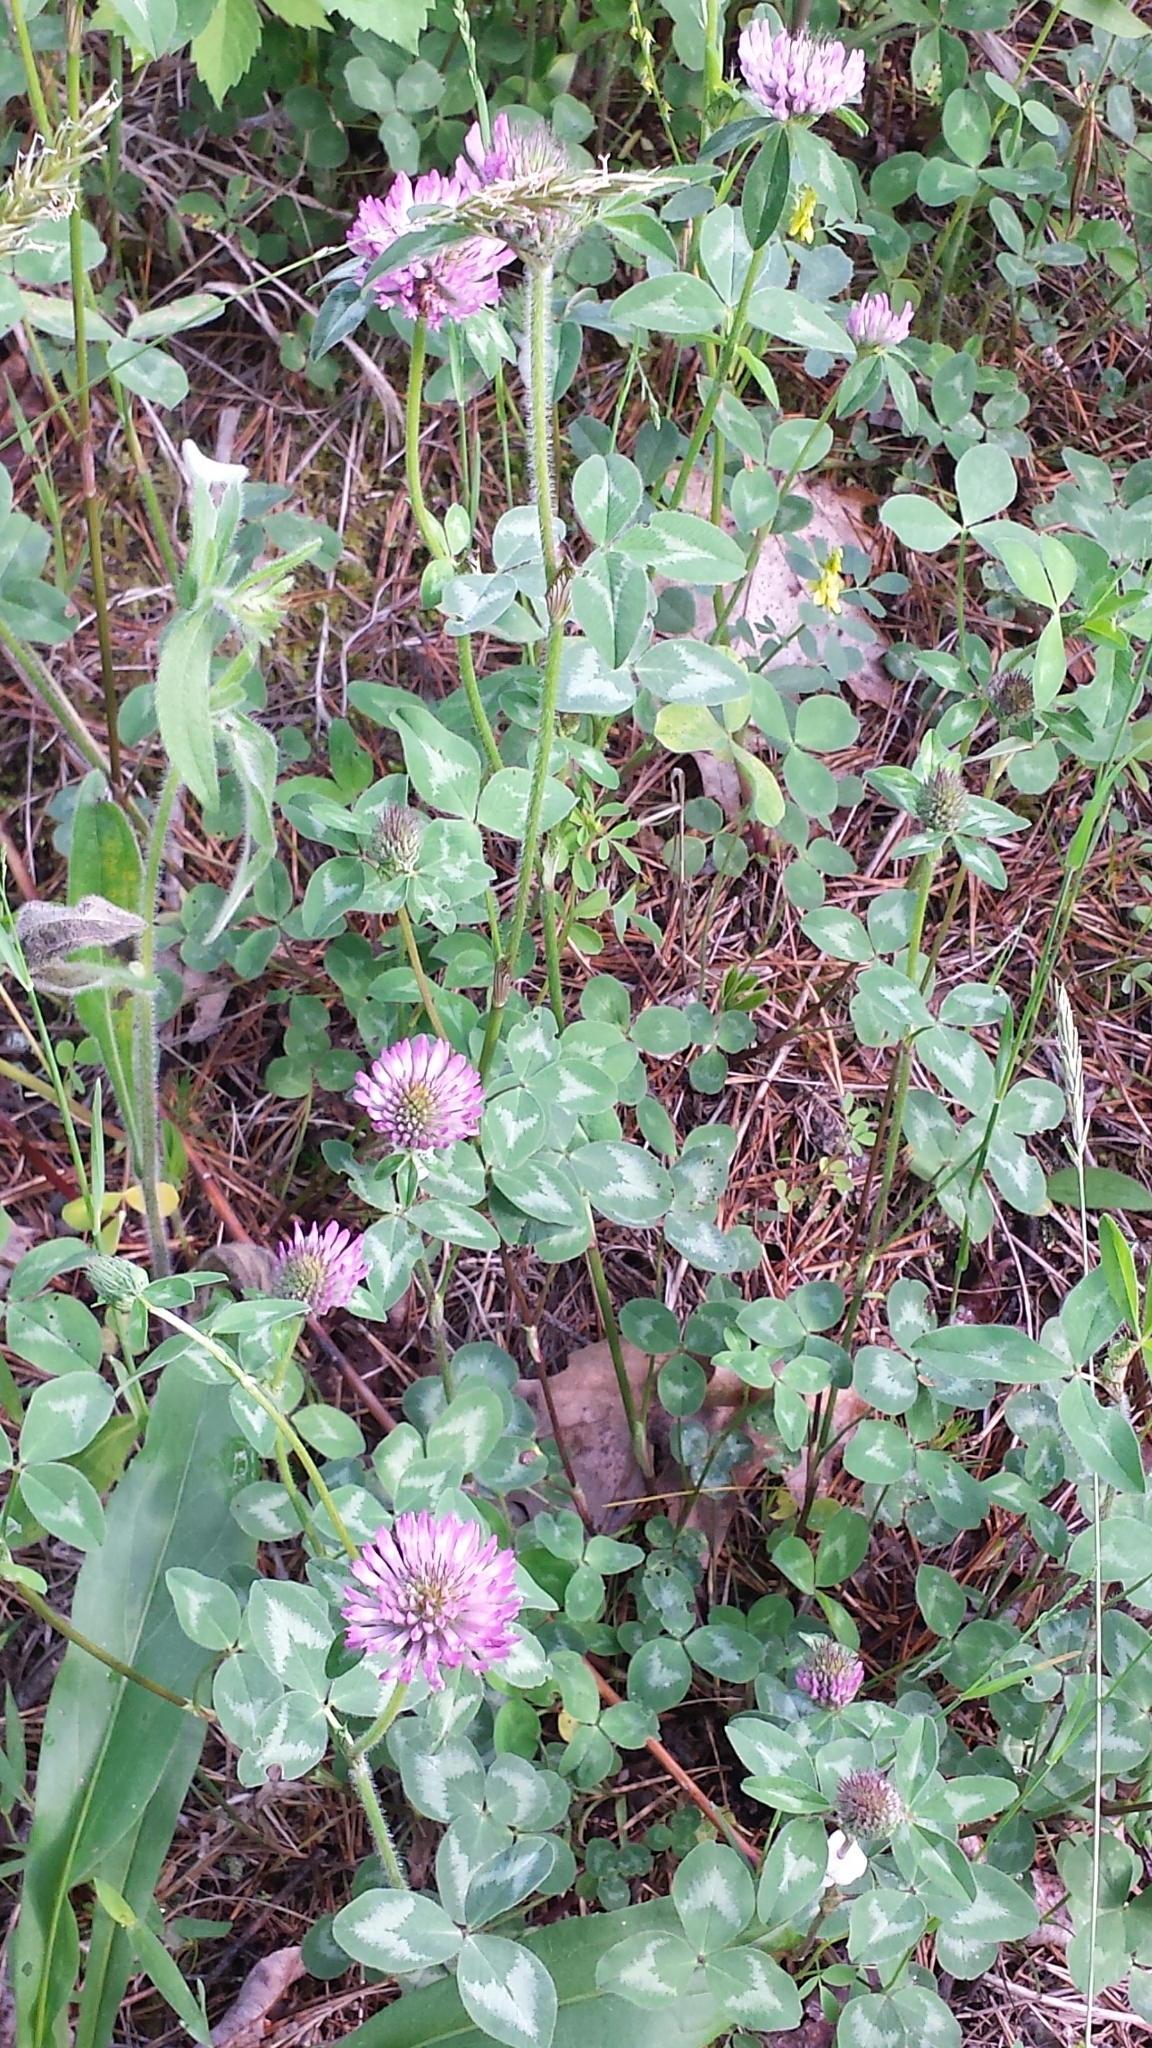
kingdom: Plantae
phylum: Tracheophyta
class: Magnoliopsida
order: Fabales
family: Fabaceae
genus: Trifolium
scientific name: Trifolium pratense
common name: Red clover
